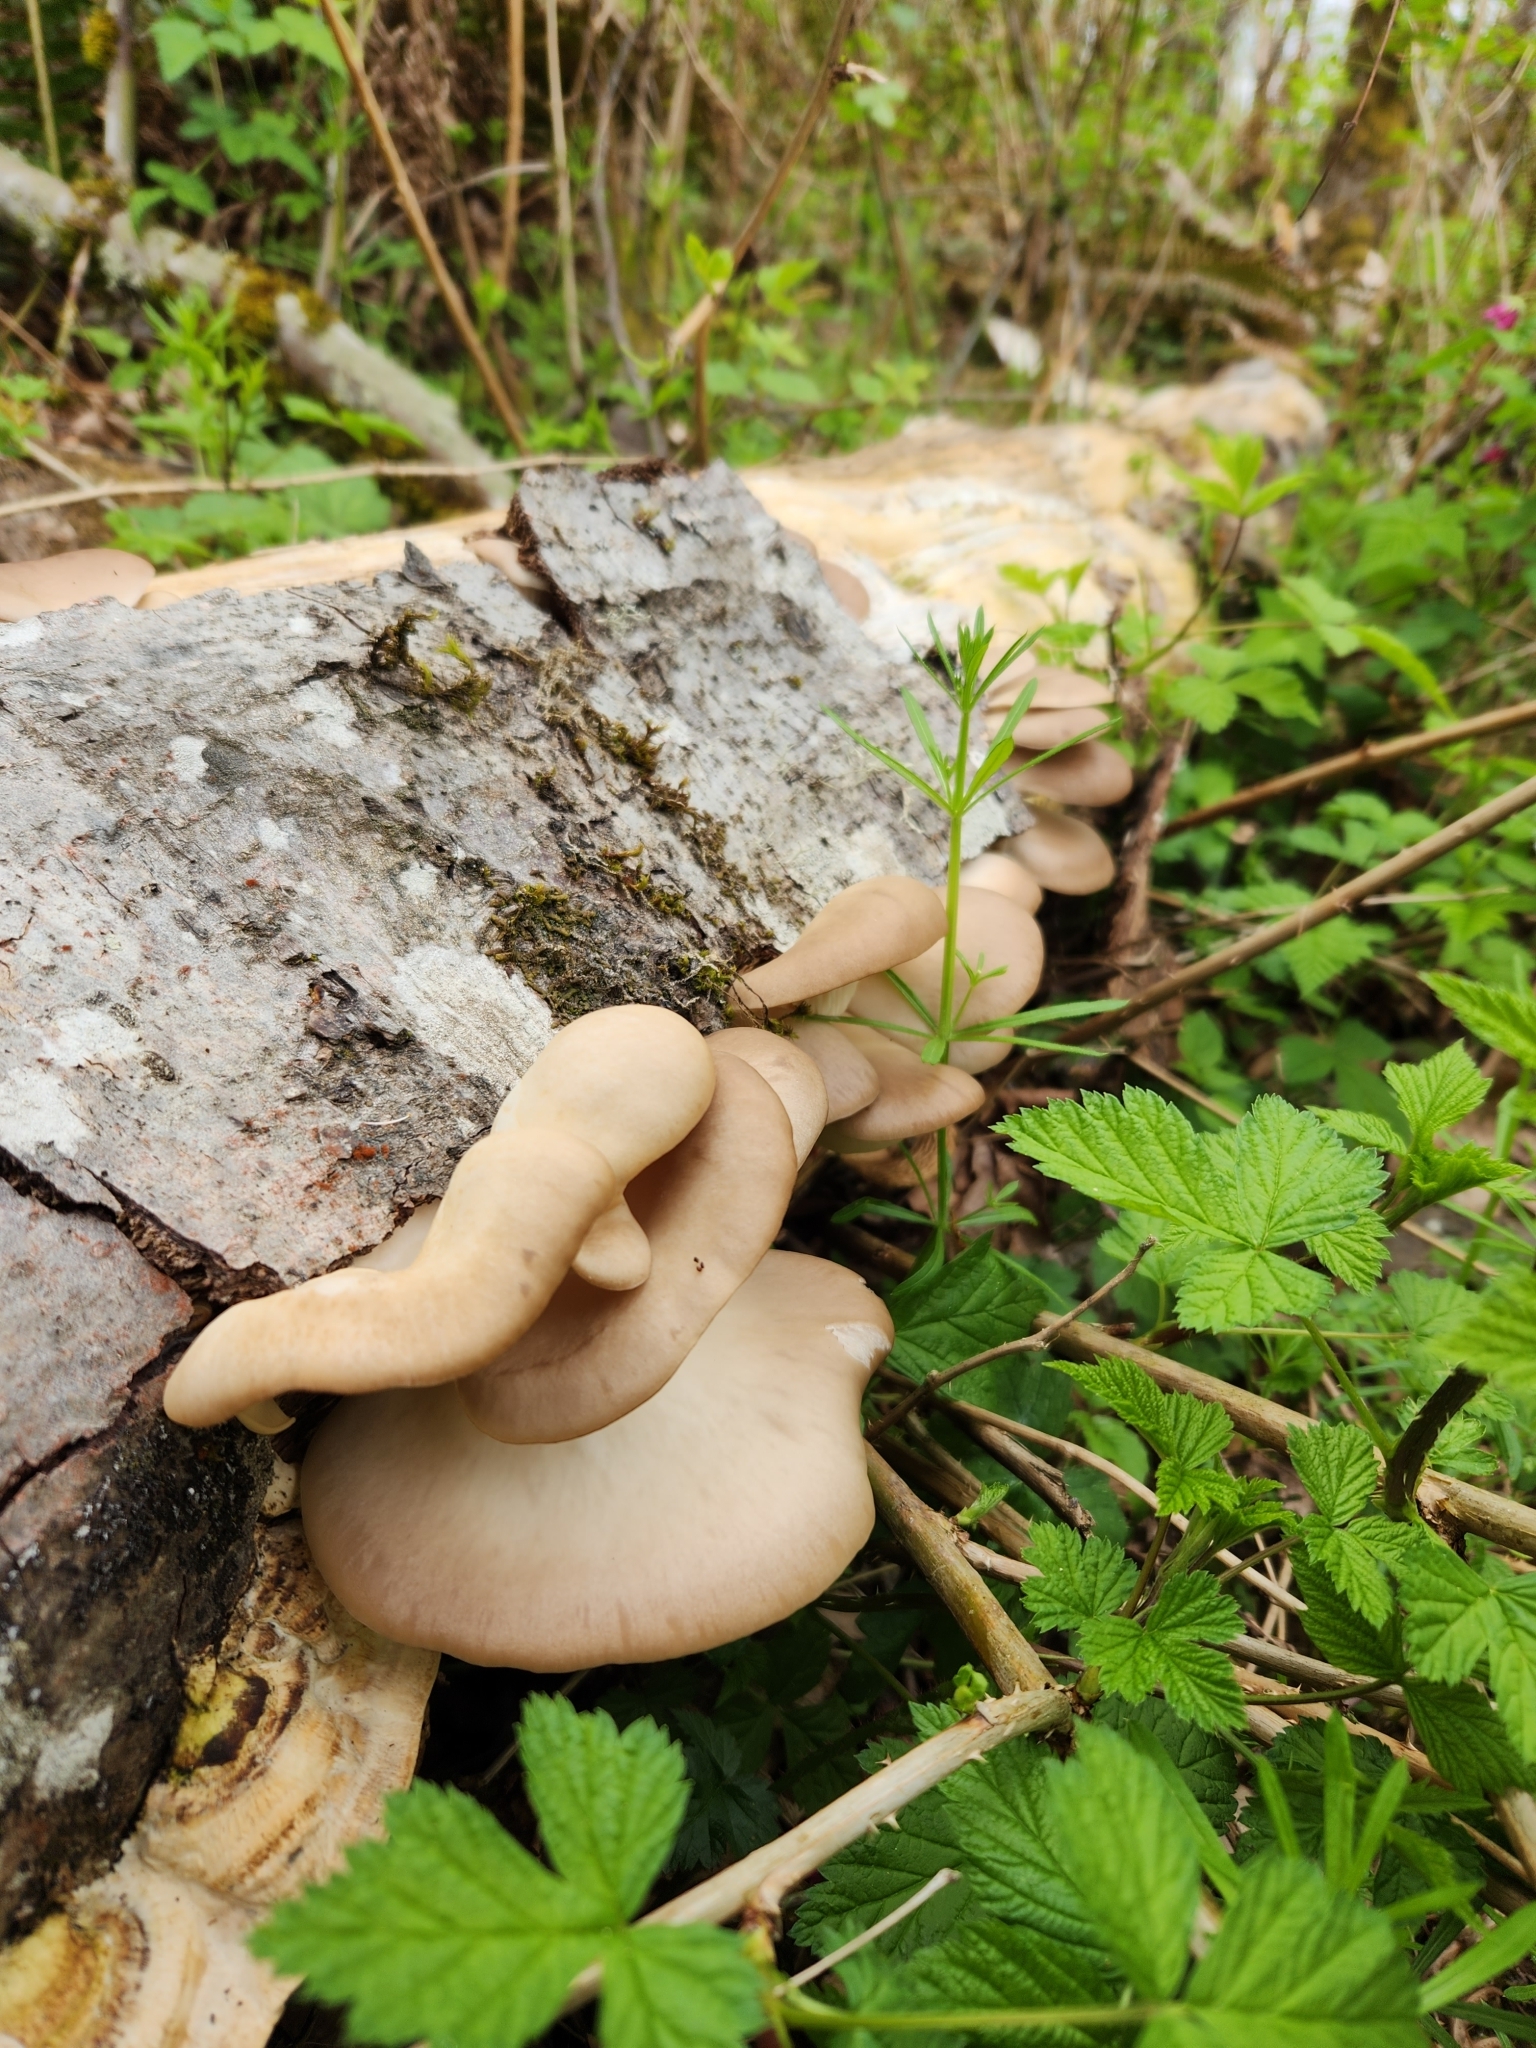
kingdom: Fungi
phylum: Basidiomycota
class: Agaricomycetes
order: Agaricales
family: Pleurotaceae
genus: Pleurotus
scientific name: Pleurotus ostreatus
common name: Oyster mushroom
